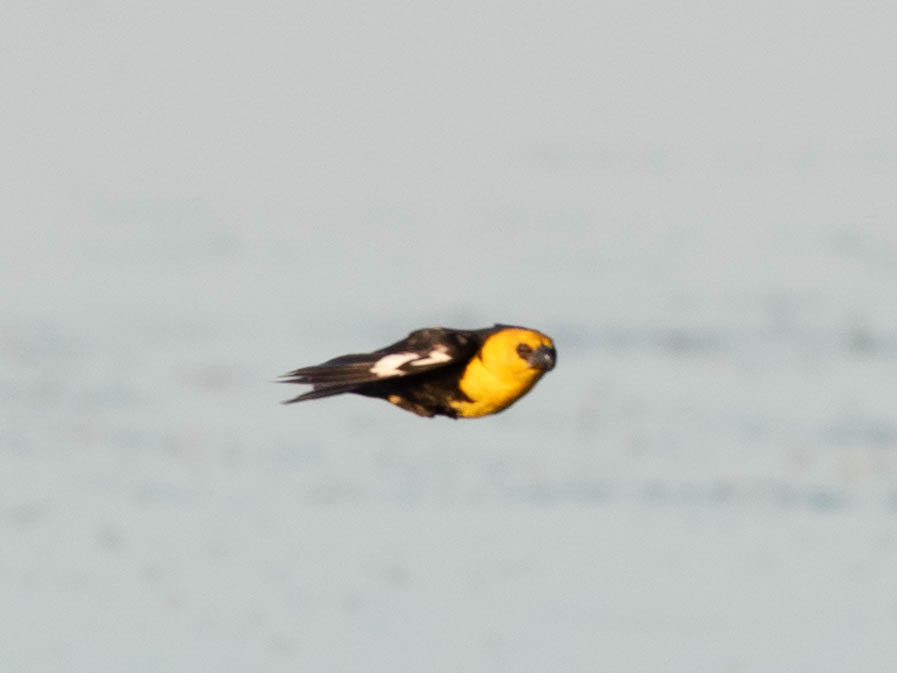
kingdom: Animalia
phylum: Chordata
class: Aves
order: Passeriformes
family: Icteridae
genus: Xanthocephalus
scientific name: Xanthocephalus xanthocephalus
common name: Yellow-headed blackbird
